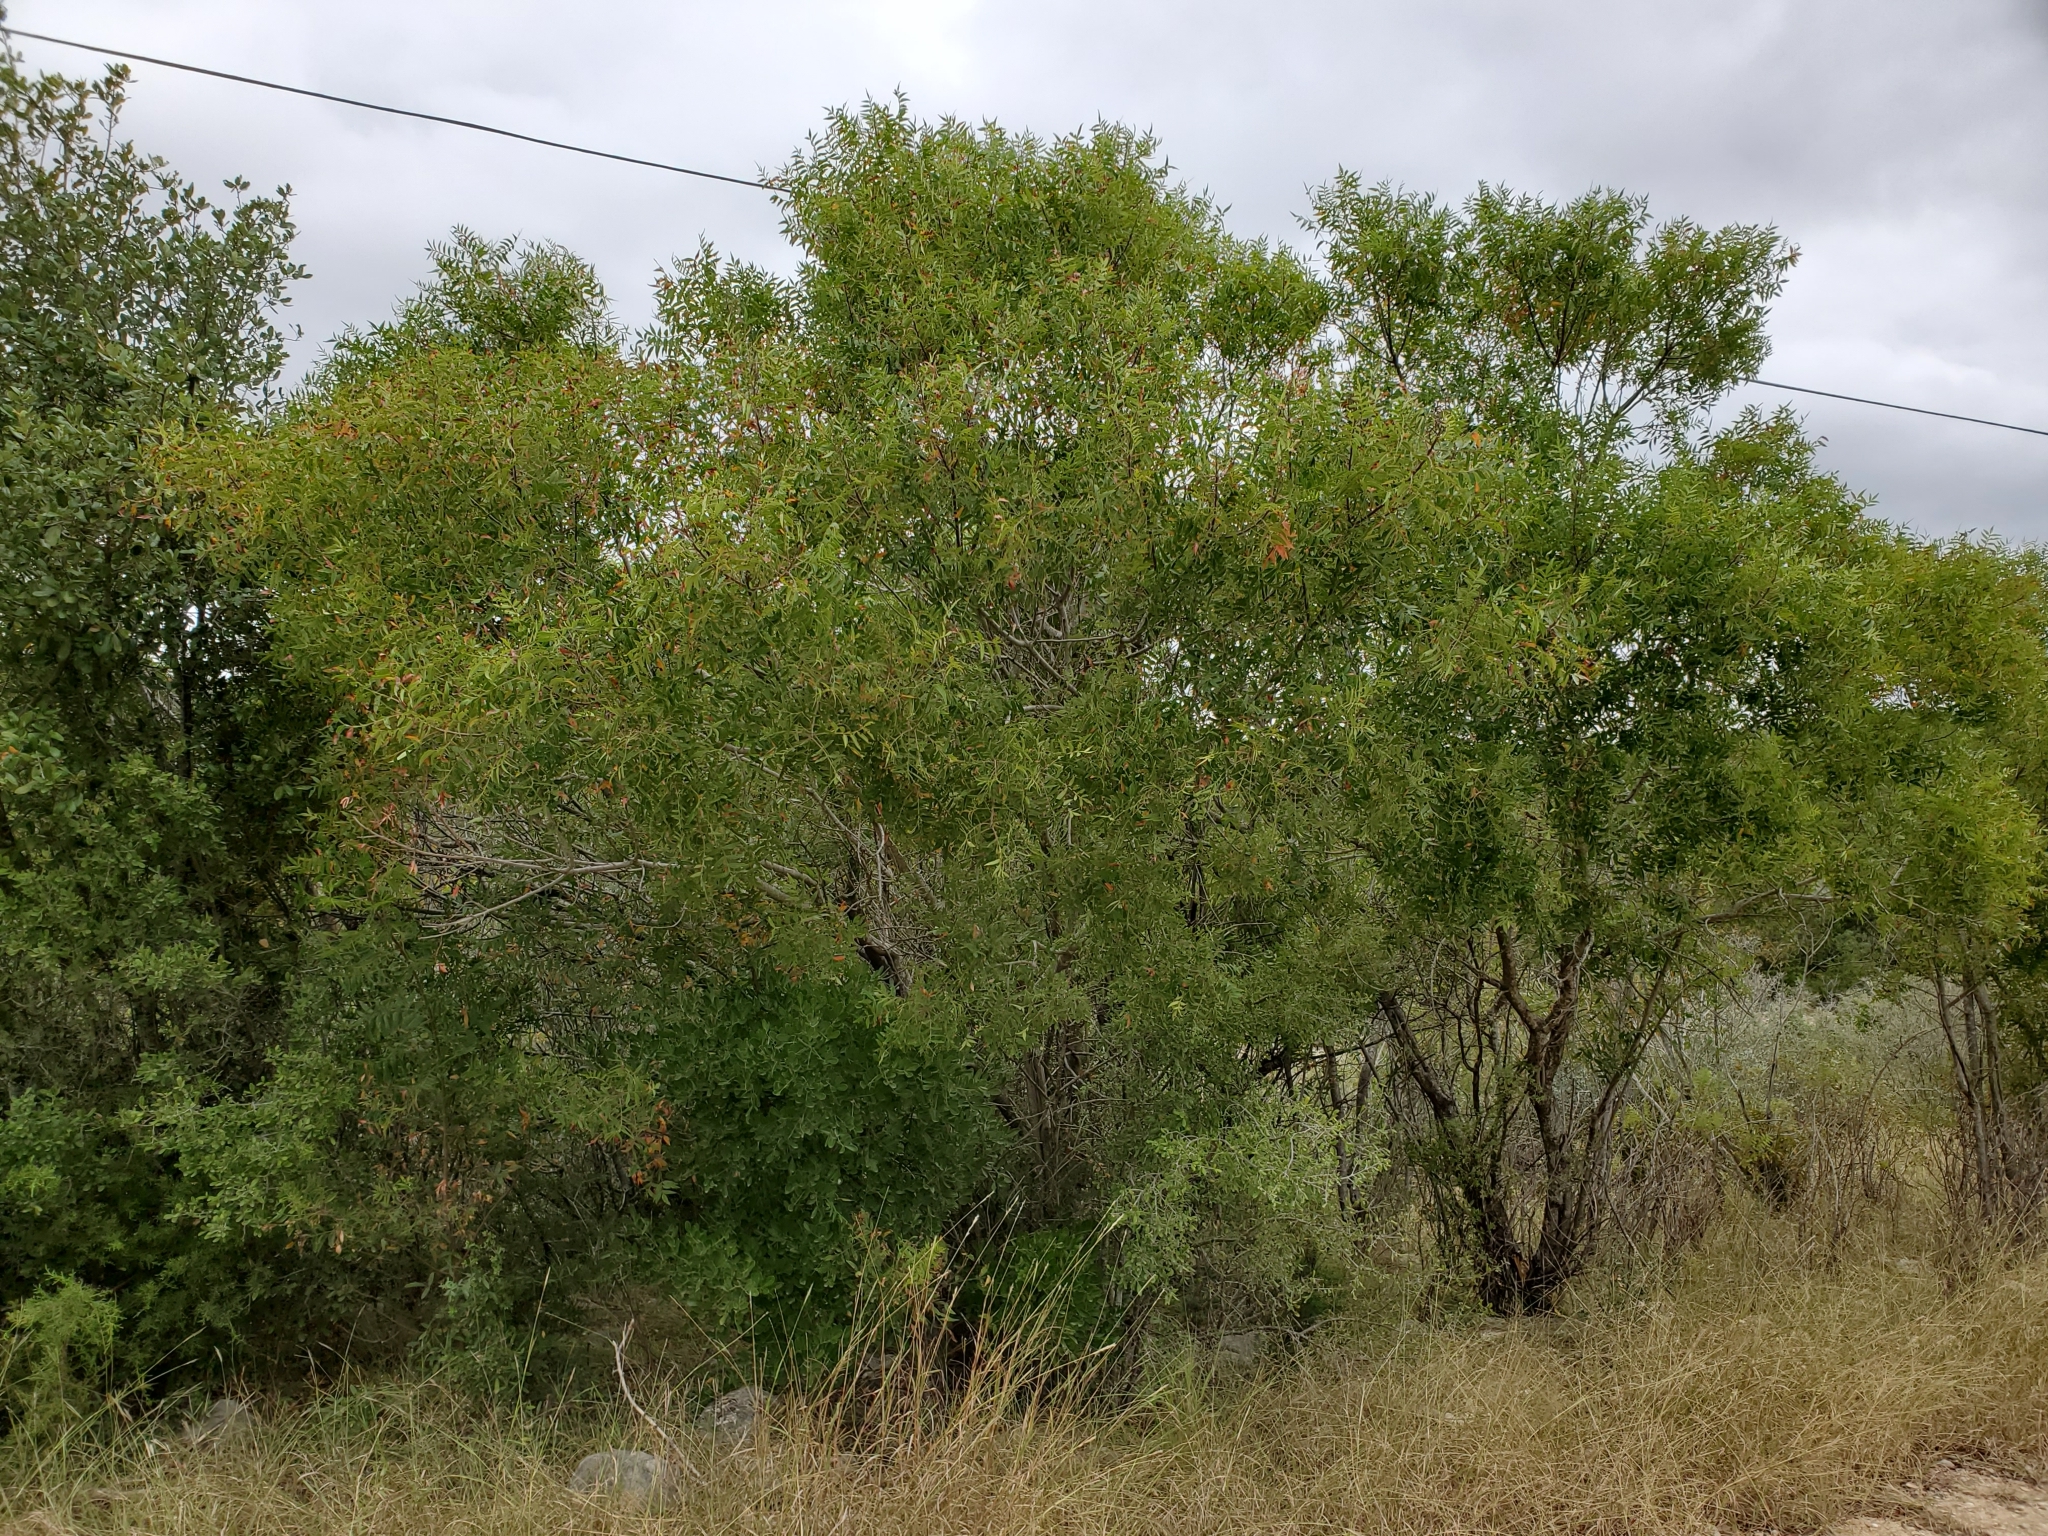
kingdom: Plantae
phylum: Tracheophyta
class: Magnoliopsida
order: Sapindales
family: Anacardiaceae
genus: Rhus
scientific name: Rhus lanceolata
